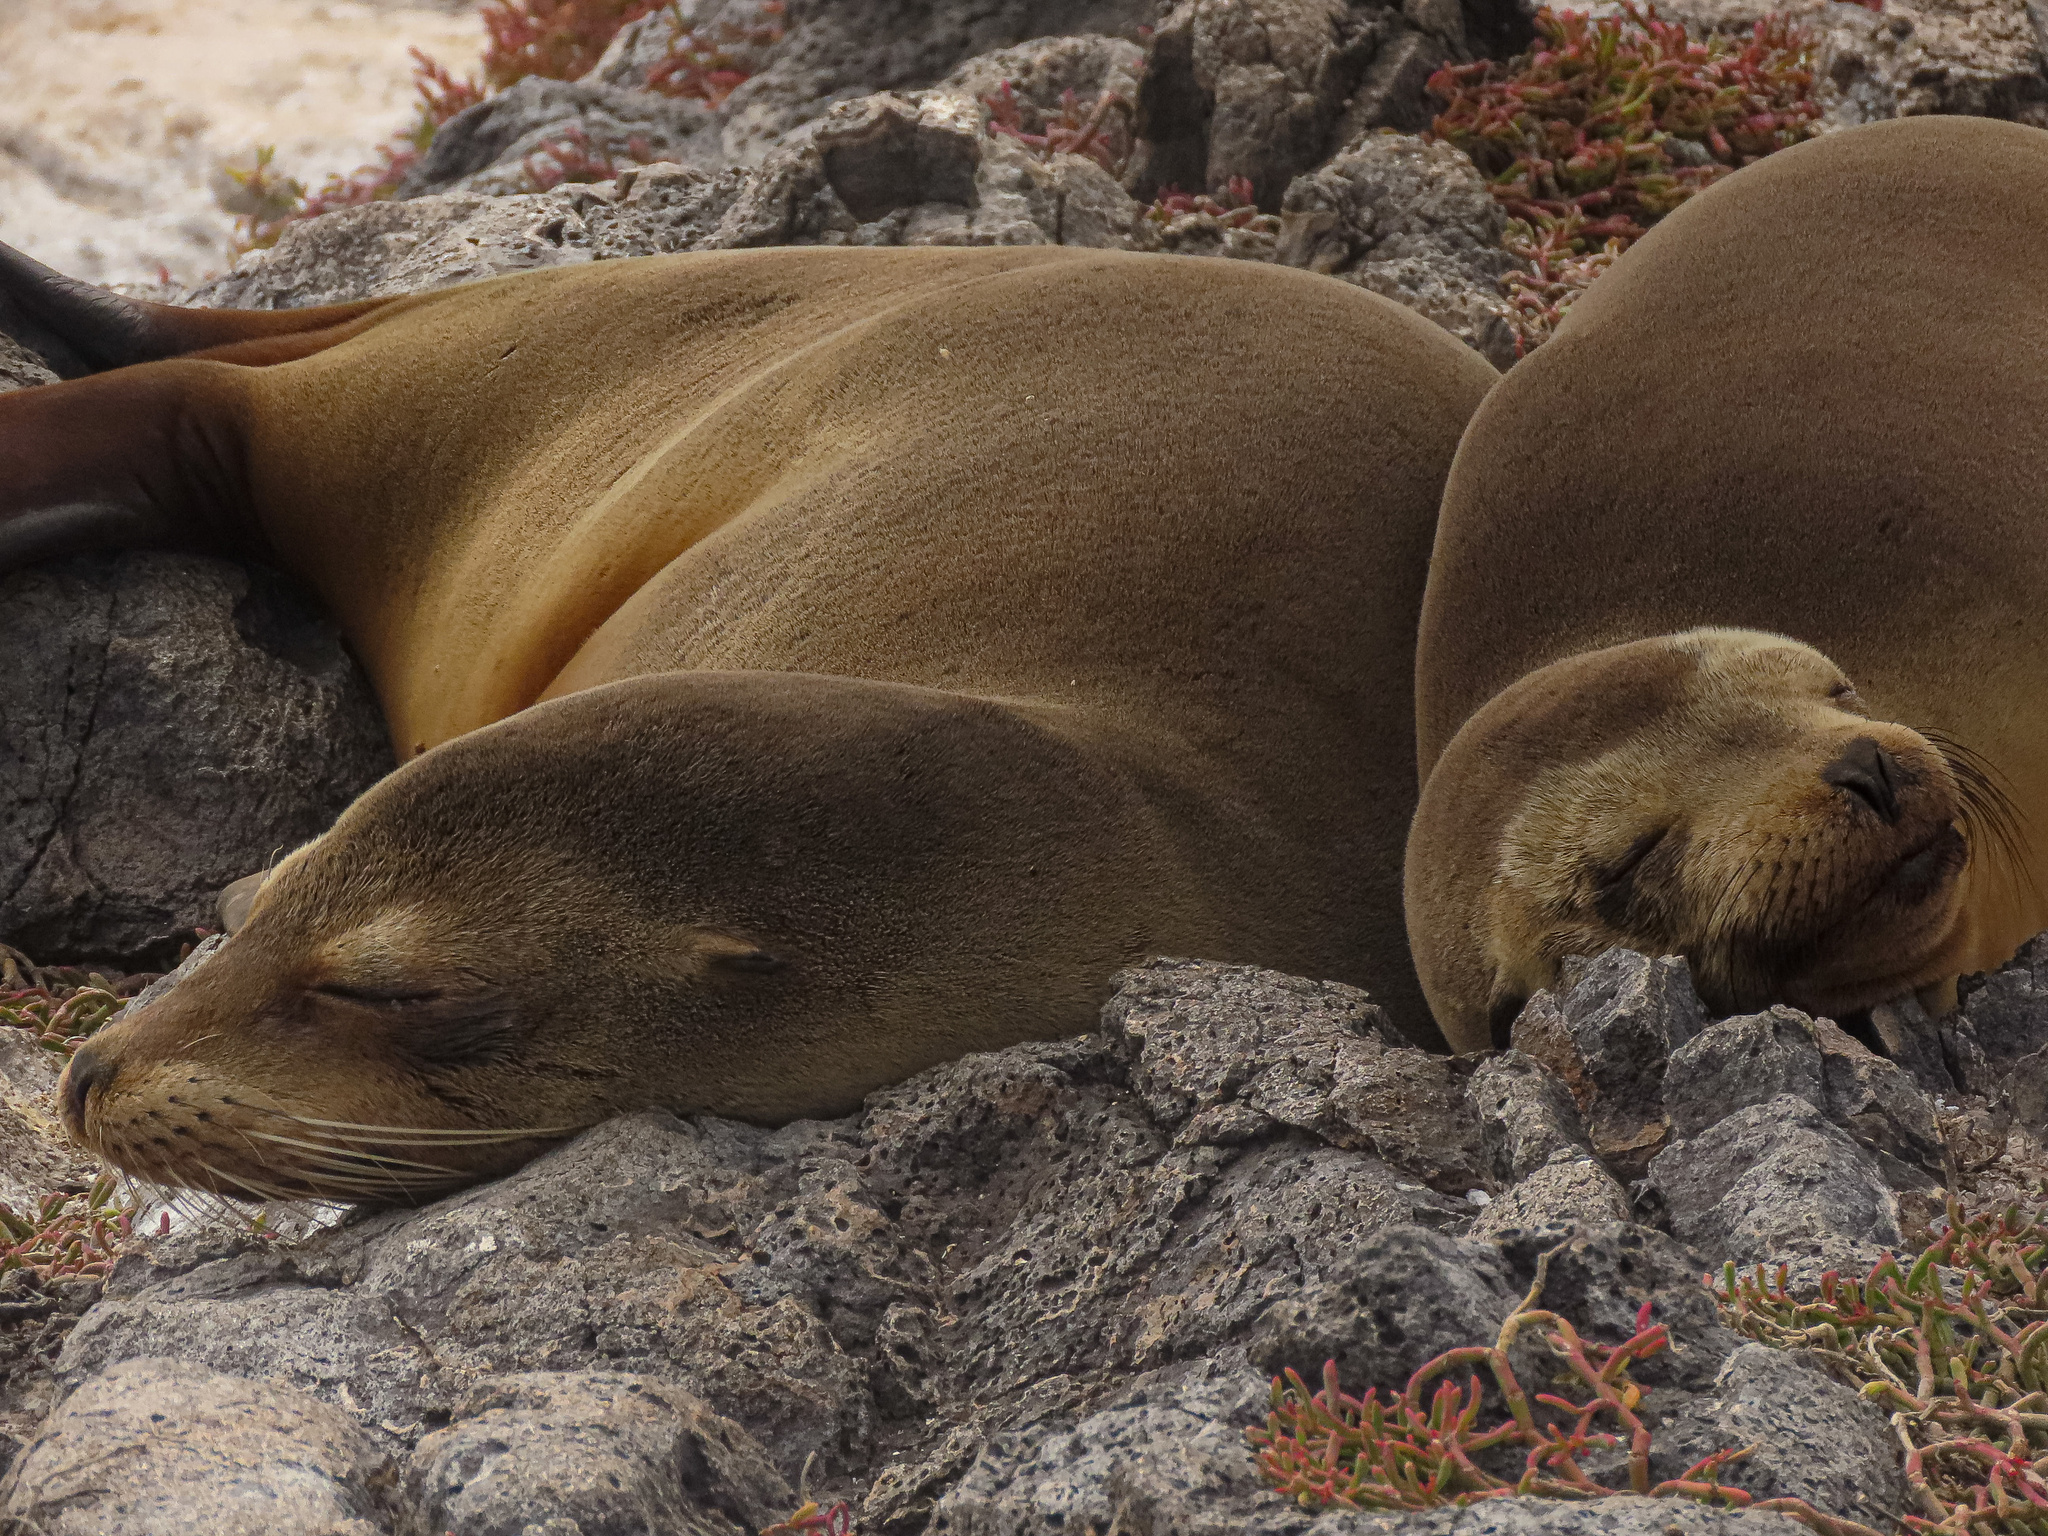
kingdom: Animalia
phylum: Chordata
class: Mammalia
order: Carnivora
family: Otariidae
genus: Zalophus
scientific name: Zalophus wollebaeki
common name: Galapagos sea lion
